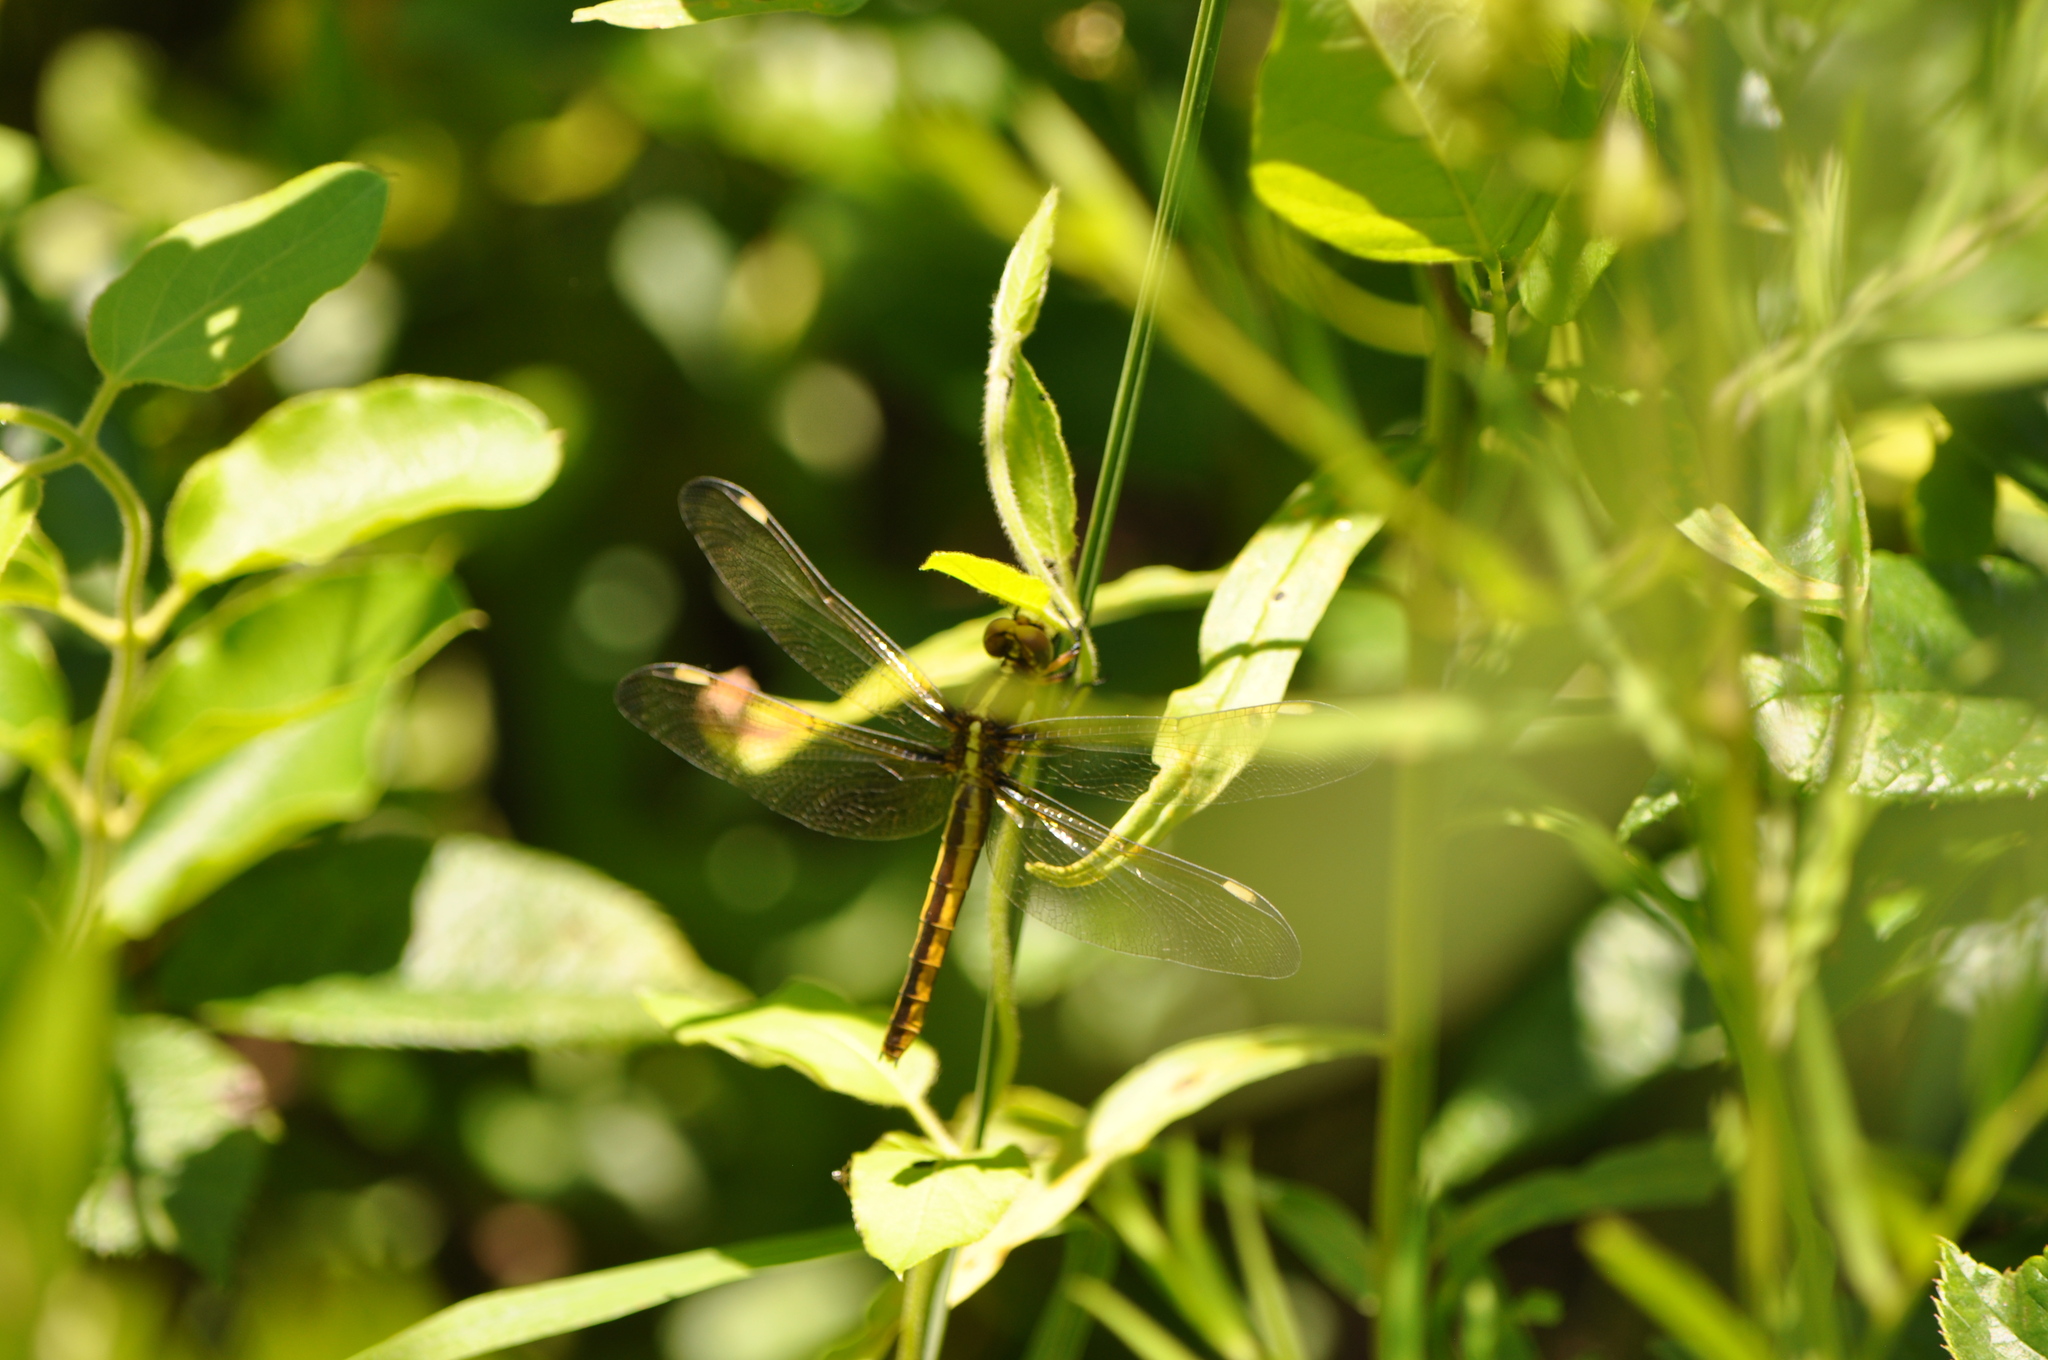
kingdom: Animalia
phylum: Arthropoda
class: Insecta
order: Odonata
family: Libellulidae
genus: Libellula
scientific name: Libellula cyanea
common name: Spangled skimmer
